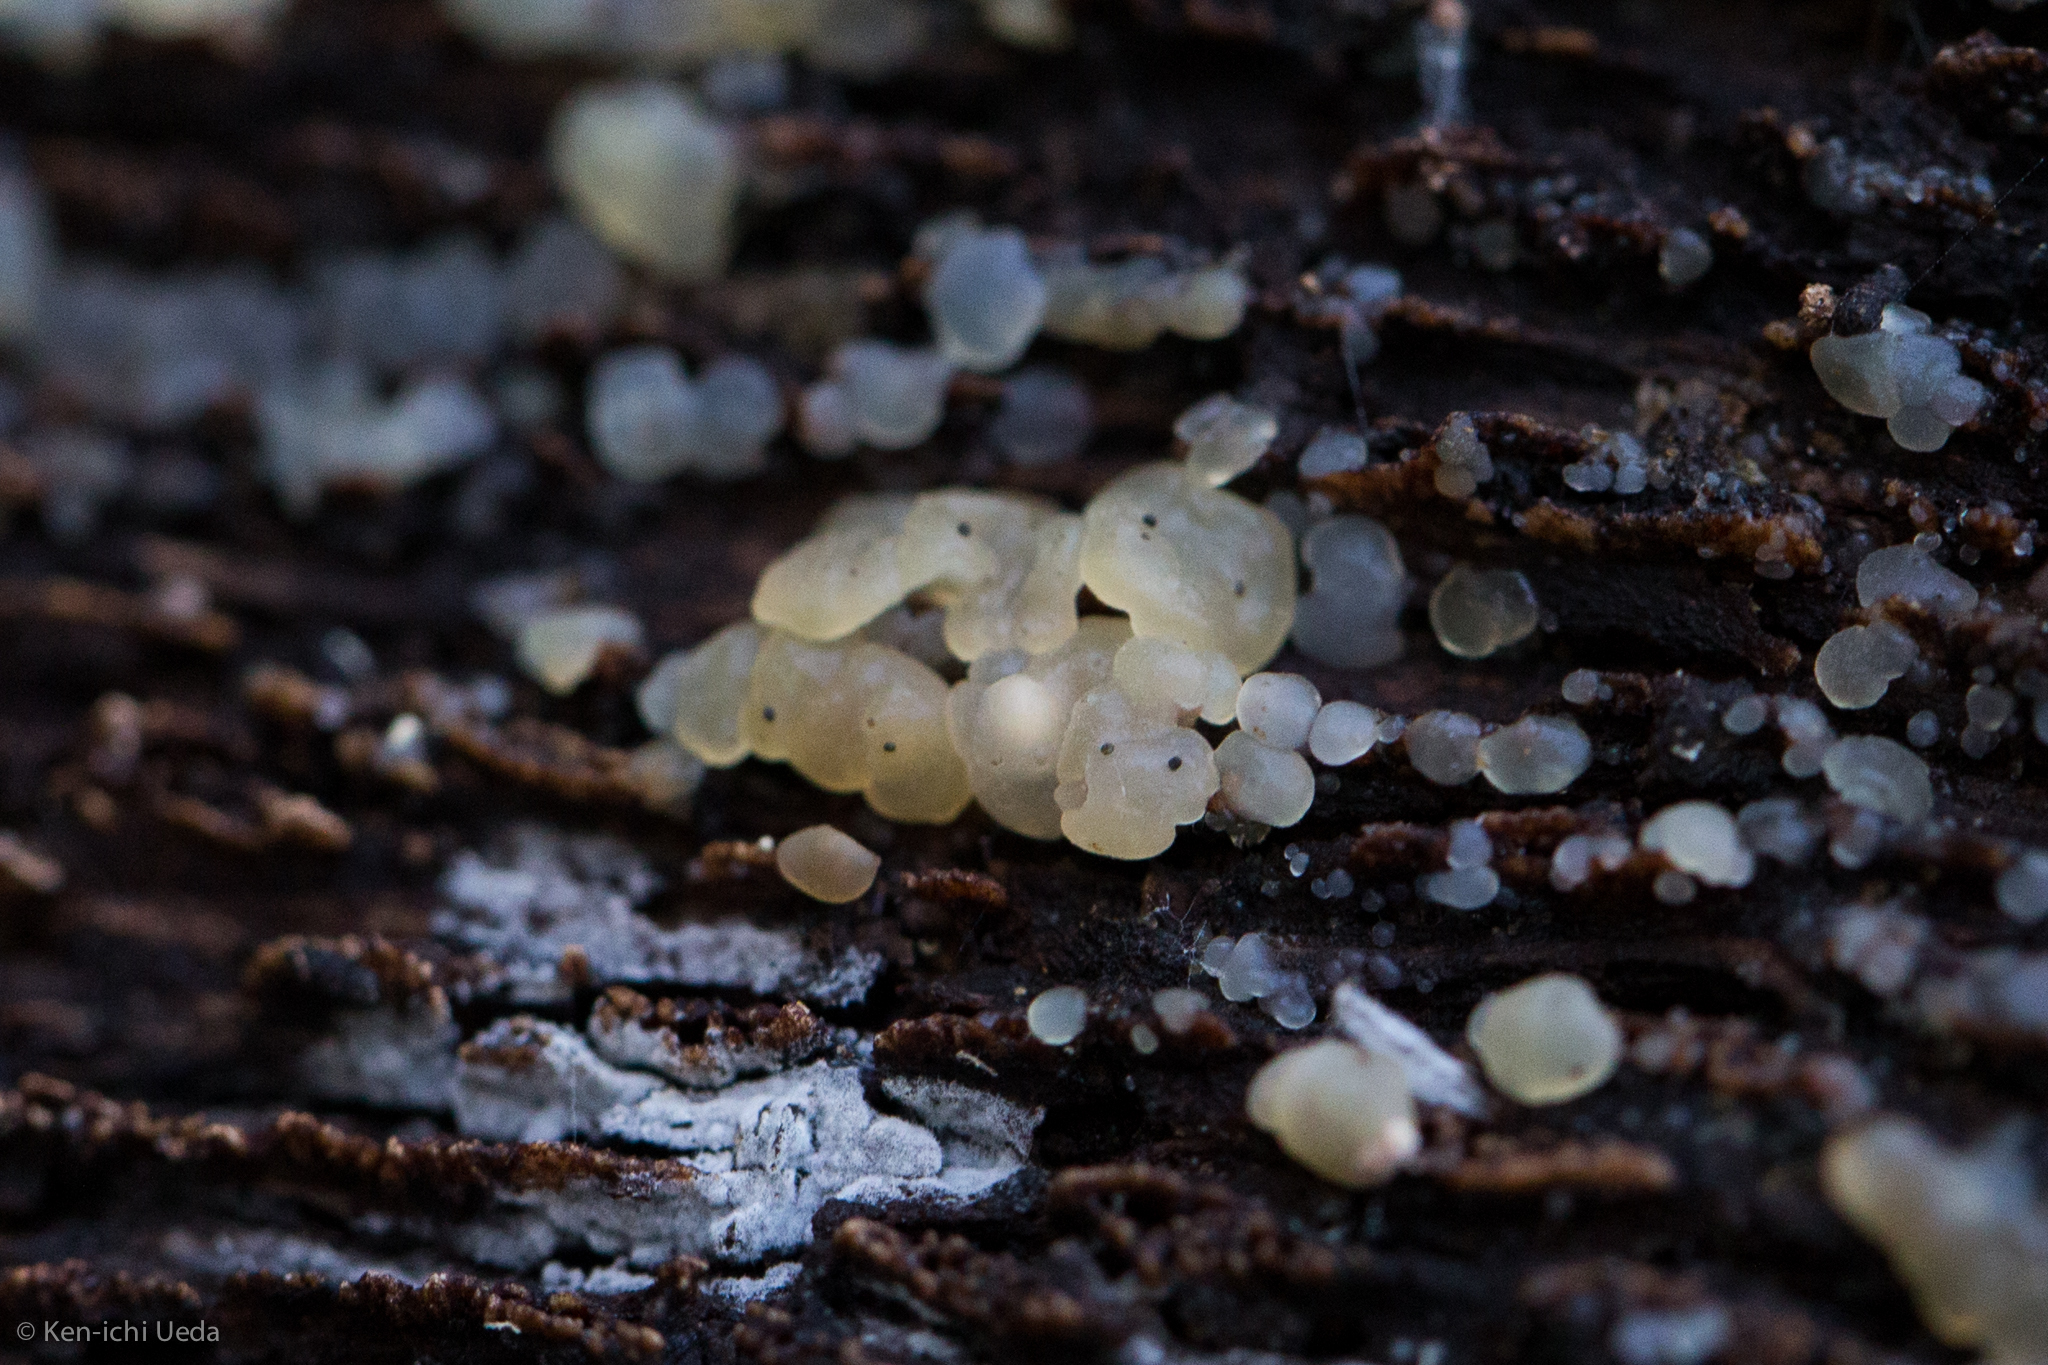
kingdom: Fungi
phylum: Basidiomycota
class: Agaricomycetes
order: Auriculariales
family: Hyaloriaceae
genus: Myxarium
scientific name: Myxarium nucleatum
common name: Crystal brain fungus
